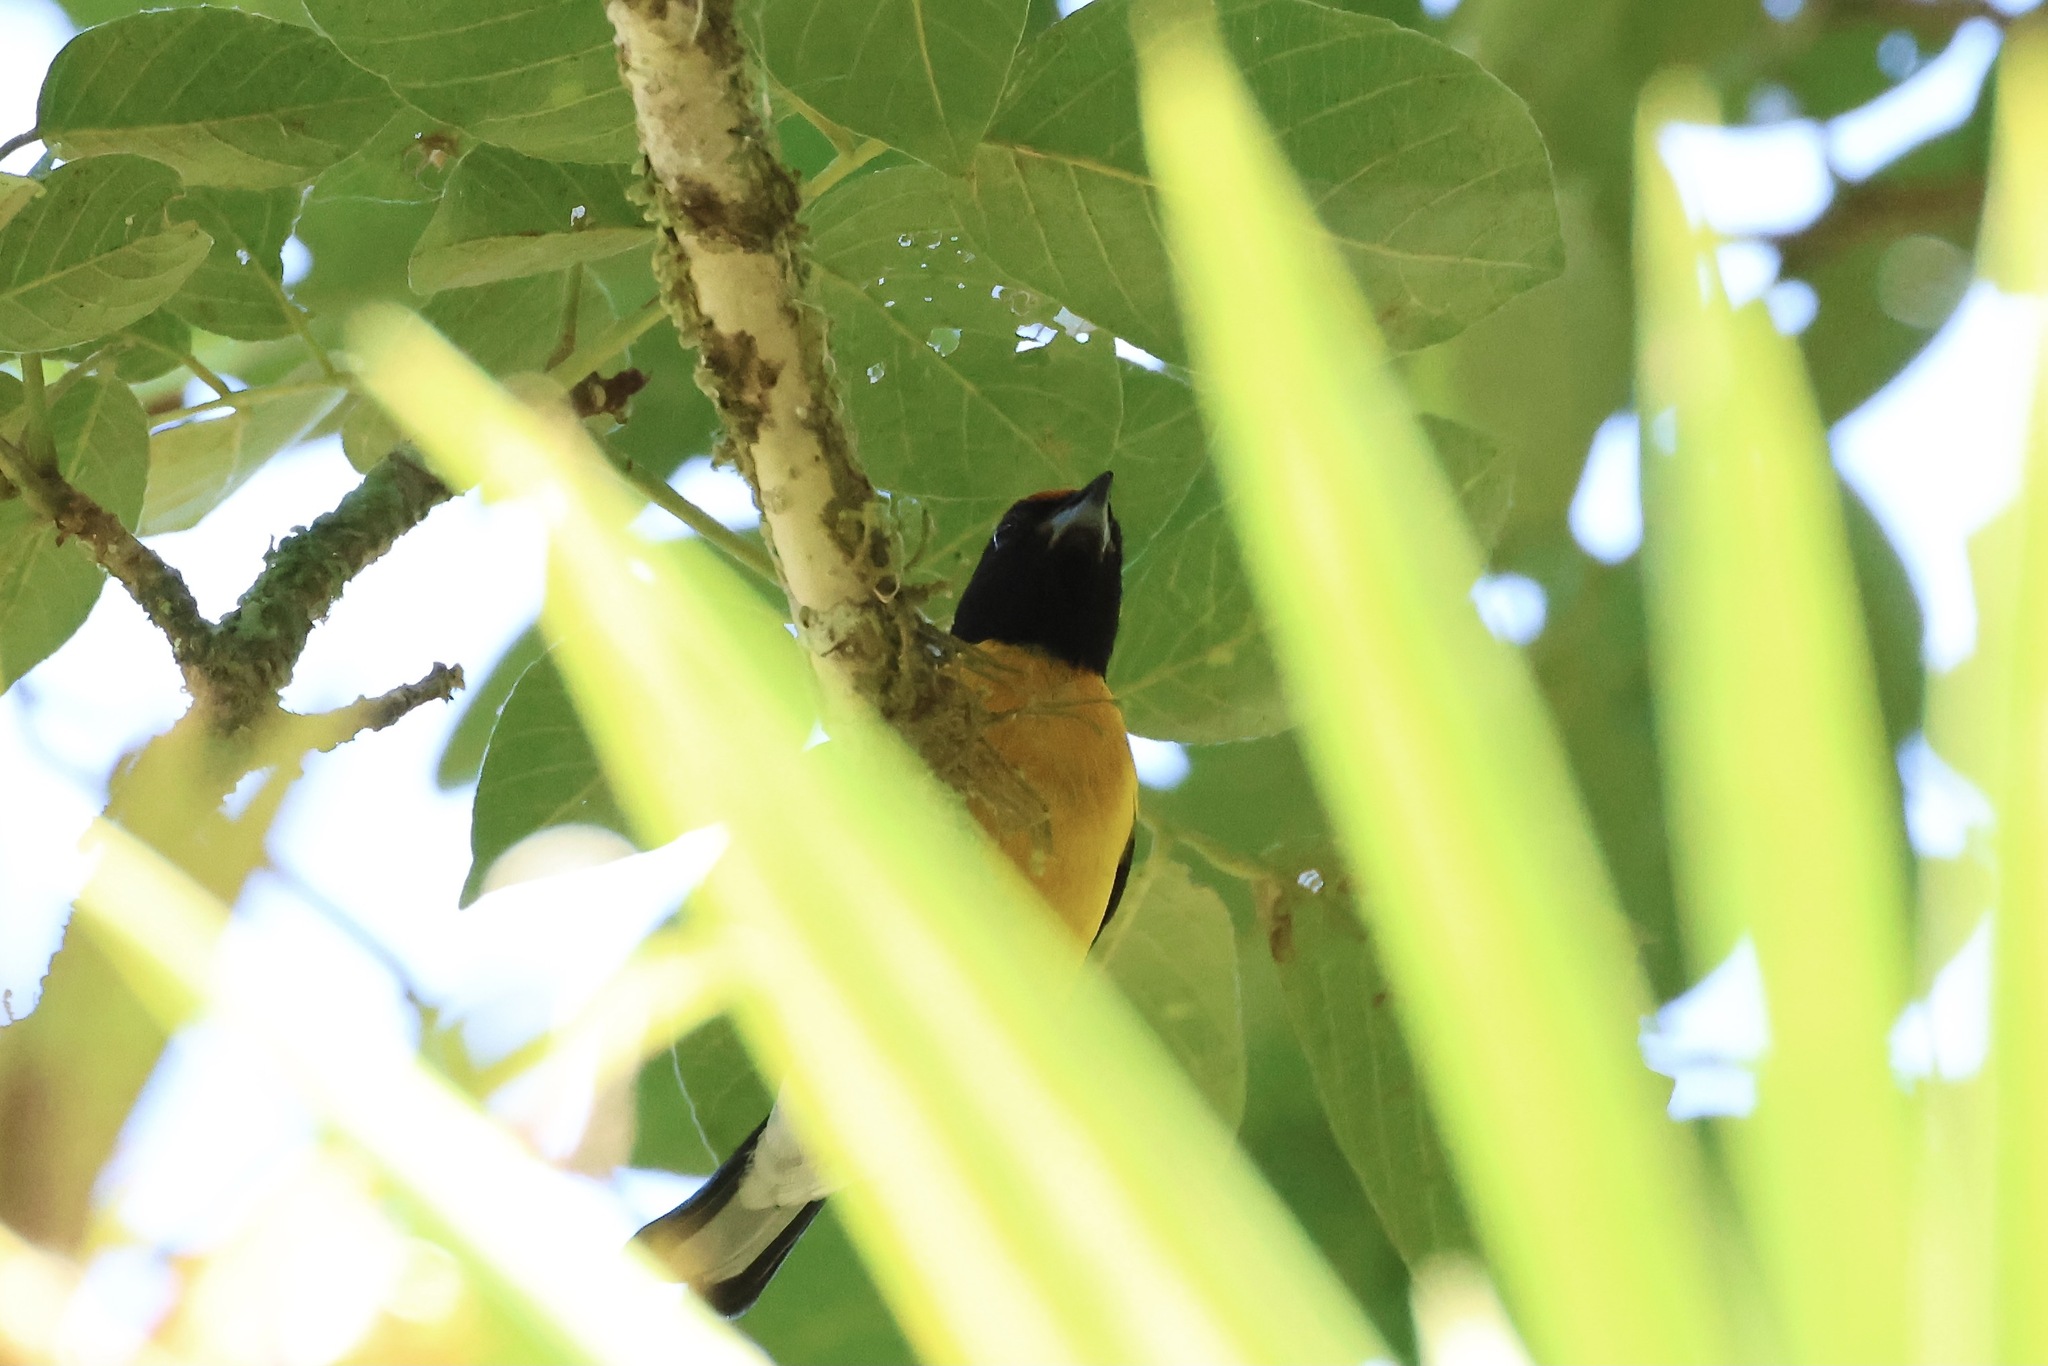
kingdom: Animalia
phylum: Chordata
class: Aves
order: Passeriformes
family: Fringillidae
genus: Euphonia
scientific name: Euphonia anneae
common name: Tawny-capped euphonia
